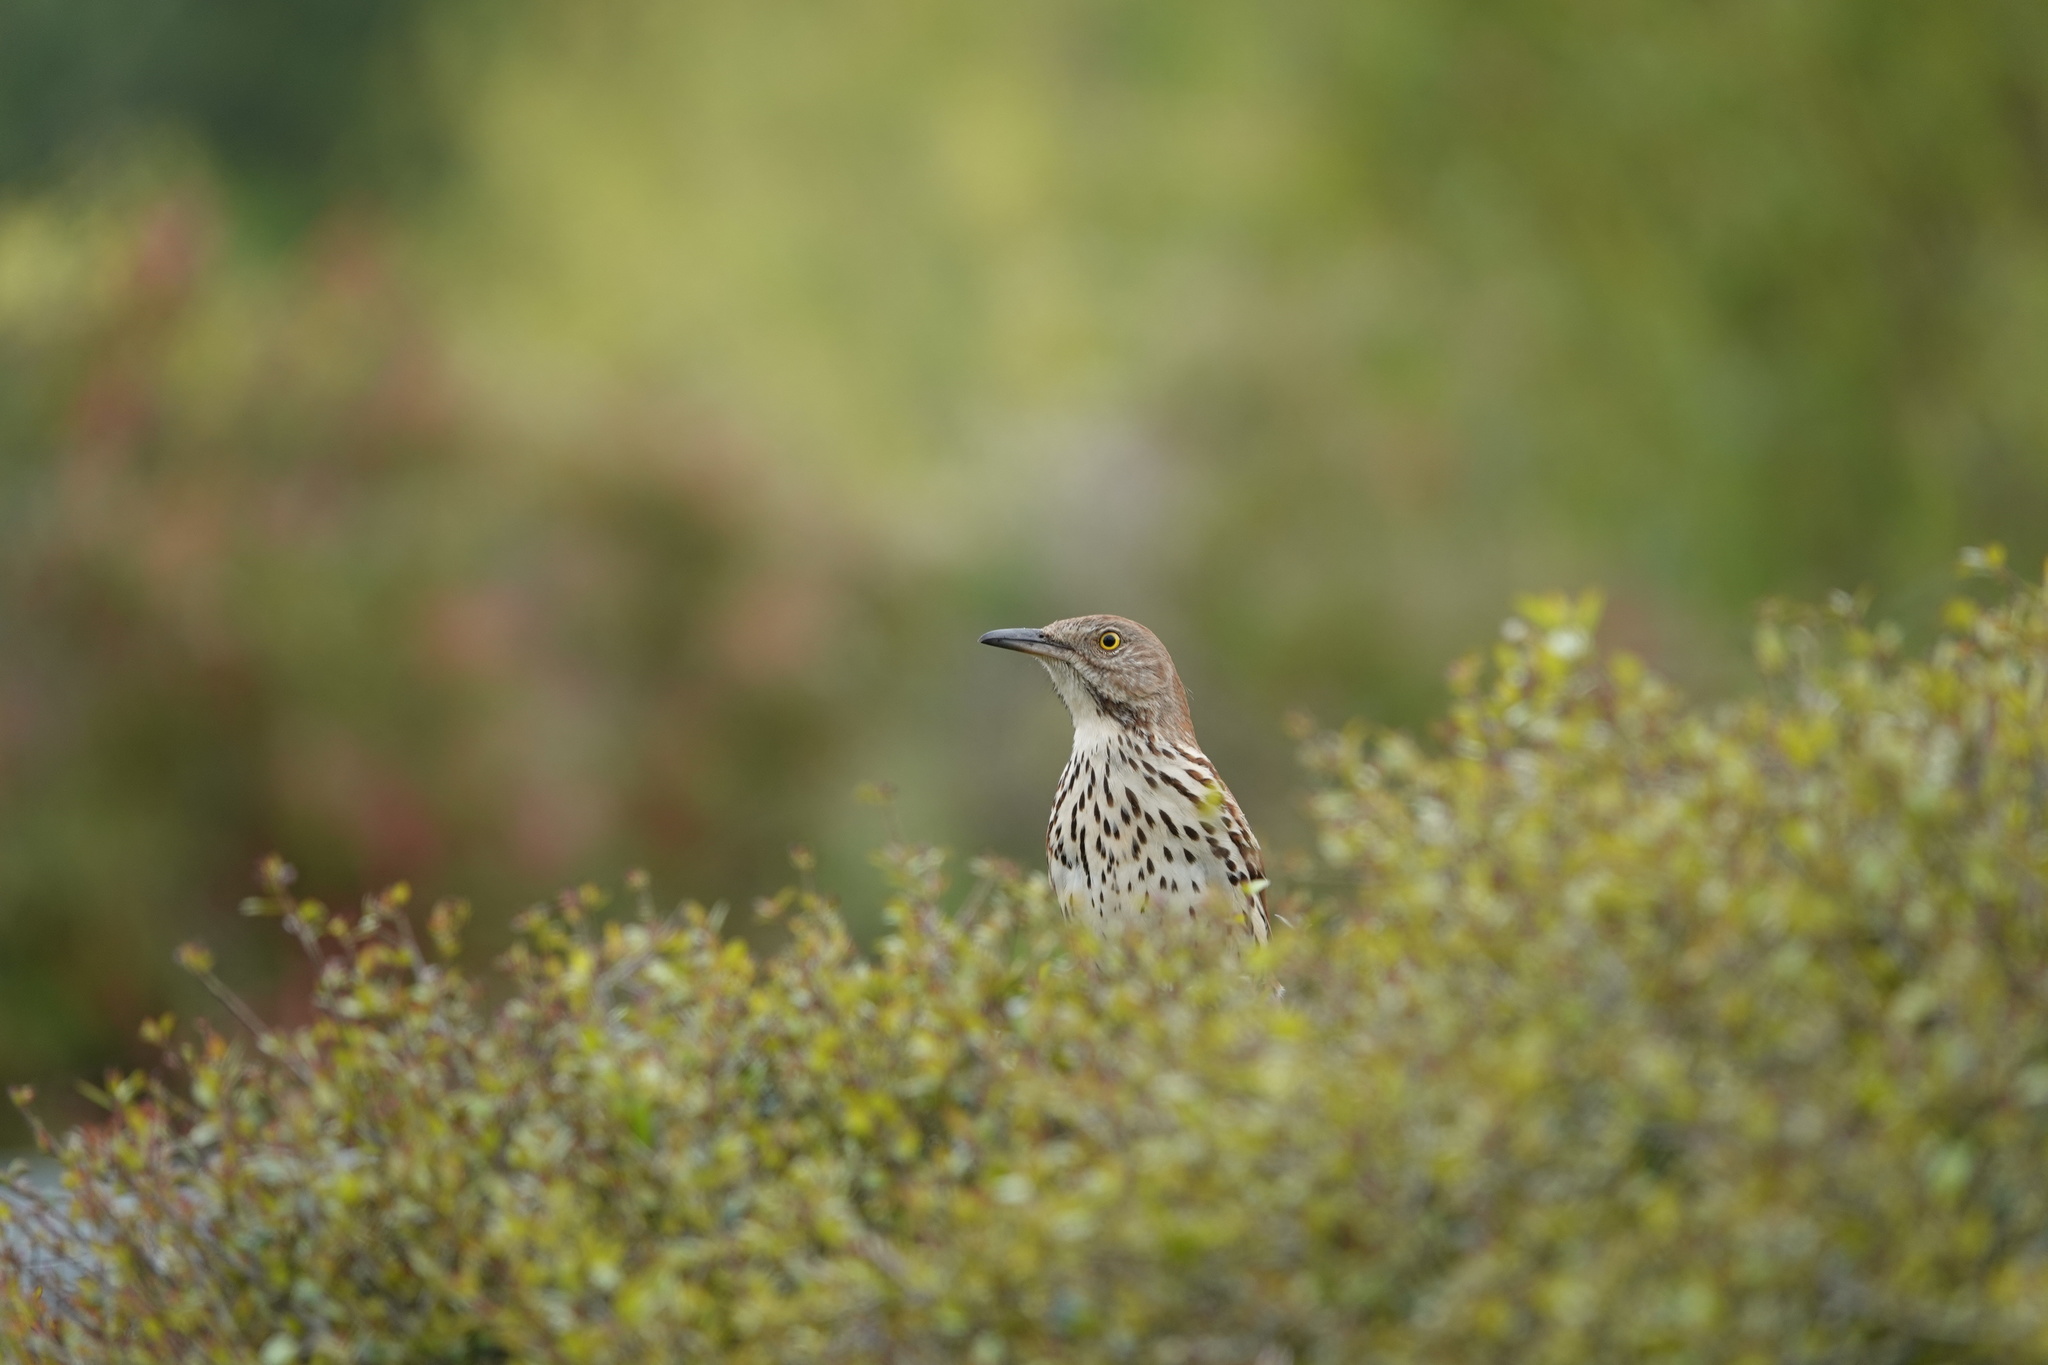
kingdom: Animalia
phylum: Chordata
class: Aves
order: Passeriformes
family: Mimidae
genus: Toxostoma
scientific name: Toxostoma rufum
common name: Brown thrasher
